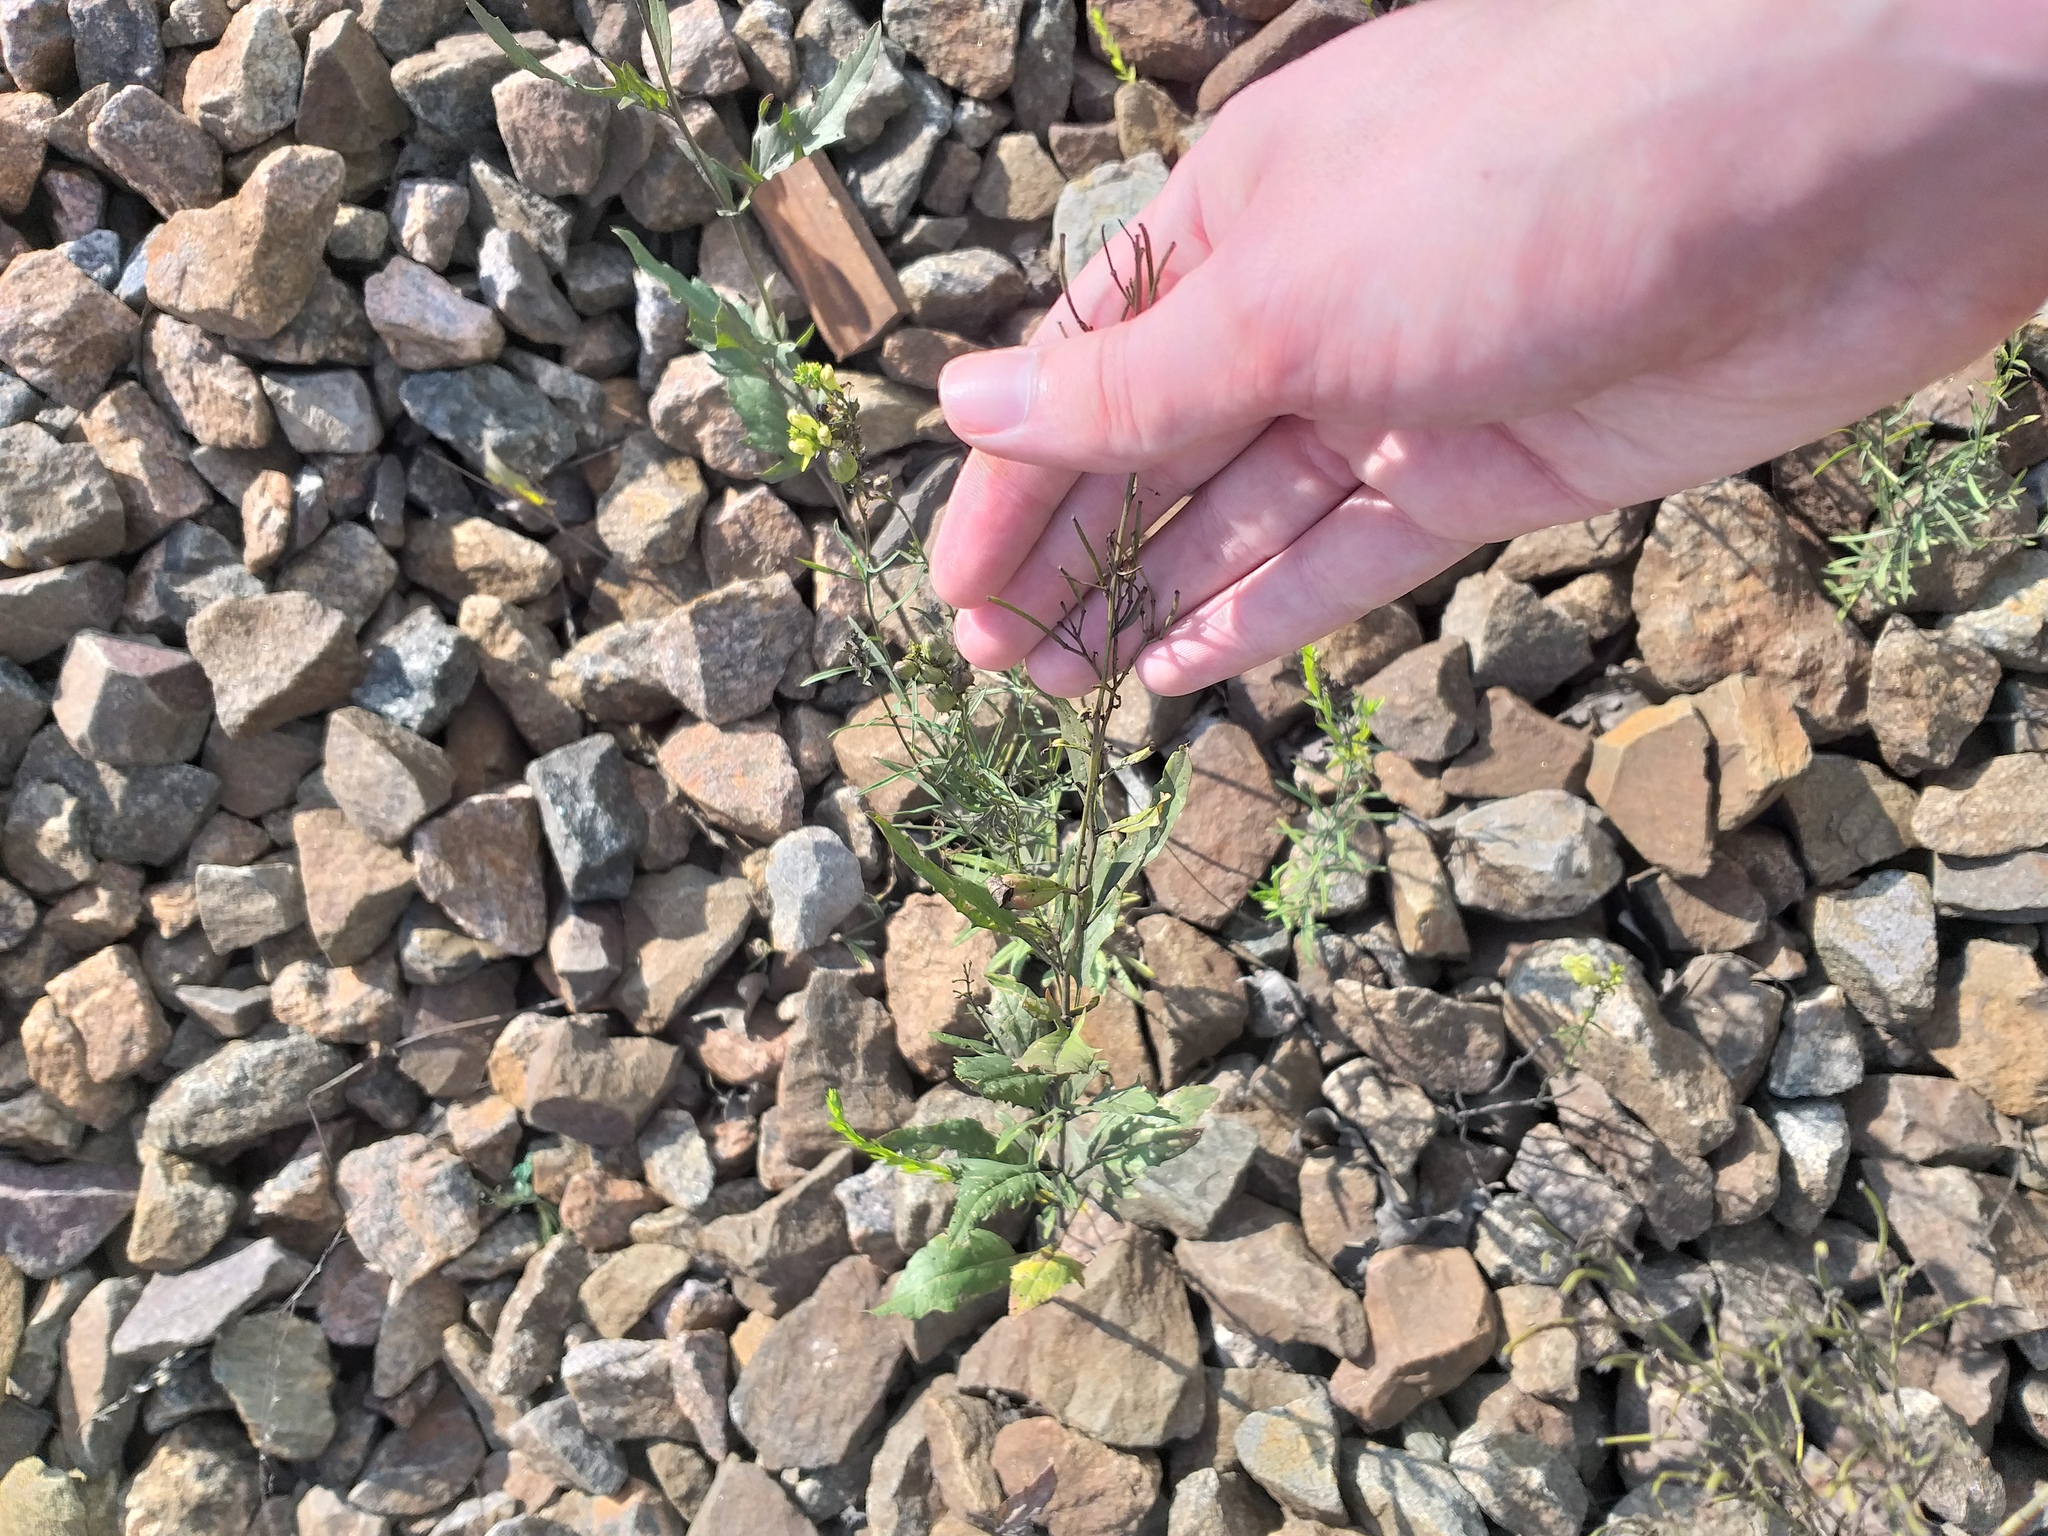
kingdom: Plantae
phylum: Tracheophyta
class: Magnoliopsida
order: Brassicales
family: Brassicaceae
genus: Sisymbrium
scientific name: Sisymbrium volgense
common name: Russian mustard
